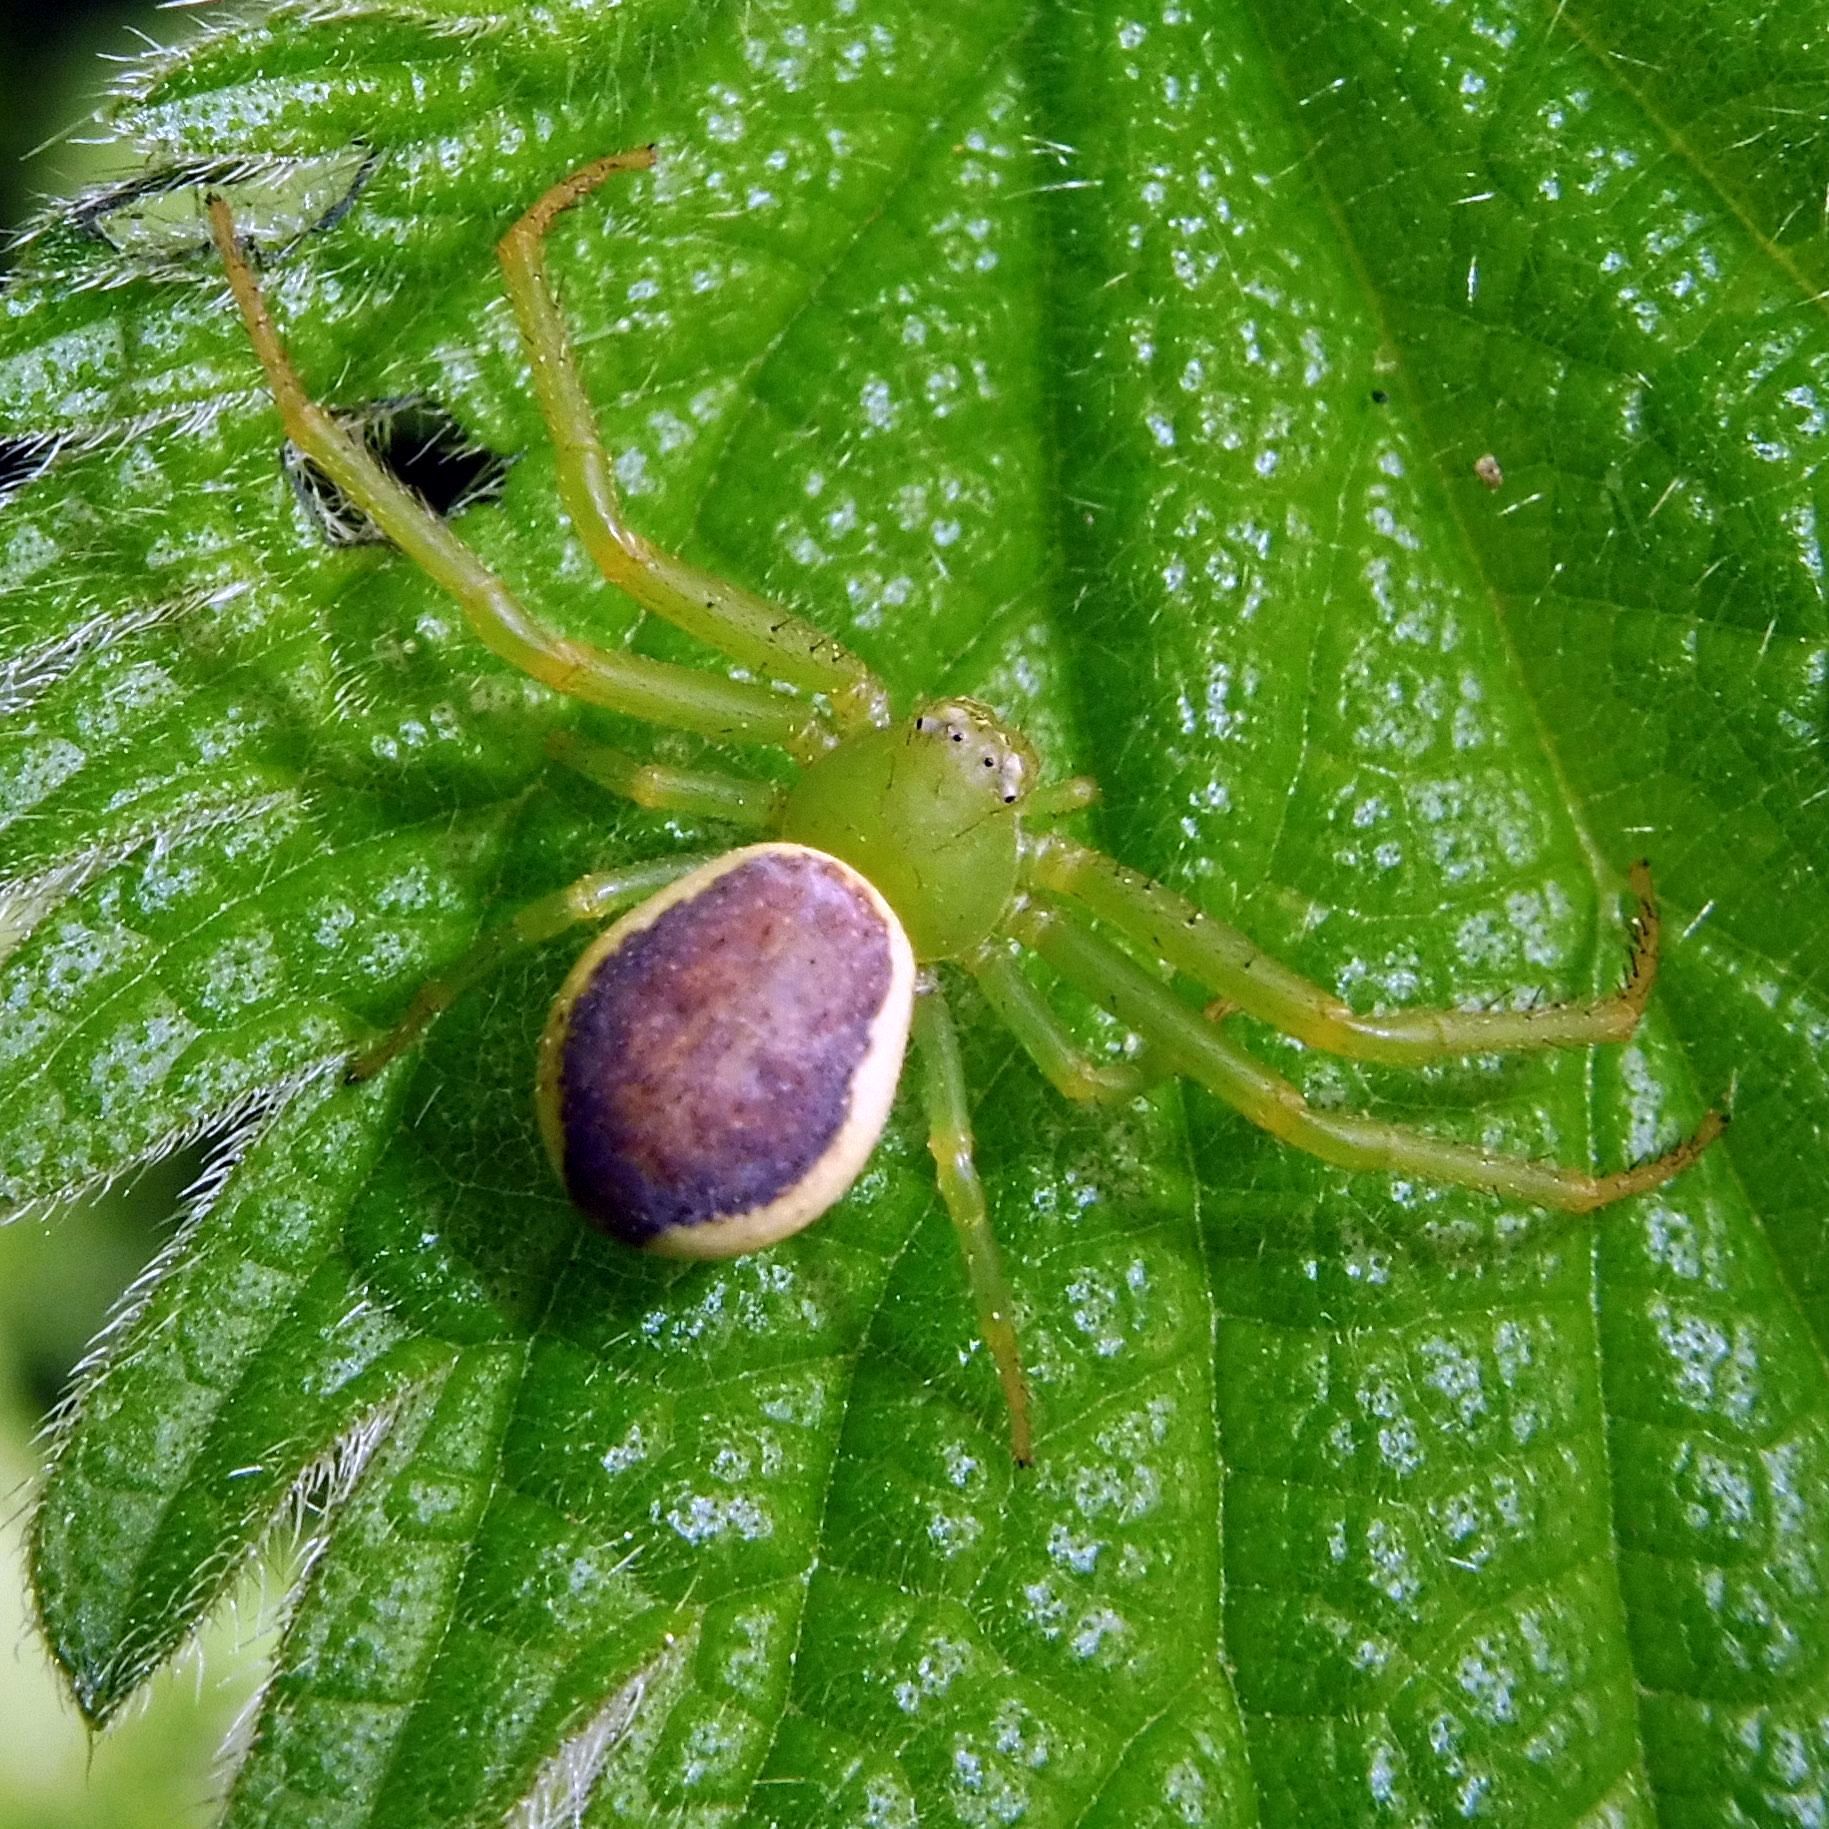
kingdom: Animalia
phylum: Arthropoda
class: Arachnida
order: Araneae
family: Thomisidae
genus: Diaea
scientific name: Diaea dorsata
